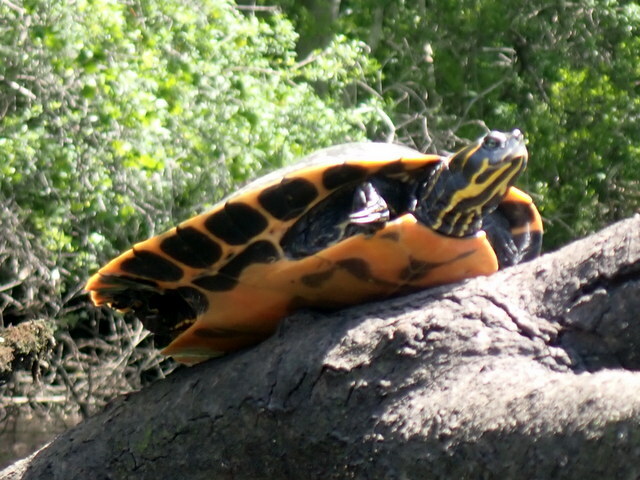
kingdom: Animalia
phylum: Chordata
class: Testudines
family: Emydidae
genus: Pseudemys
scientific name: Pseudemys concinna
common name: Eastern river cooter
